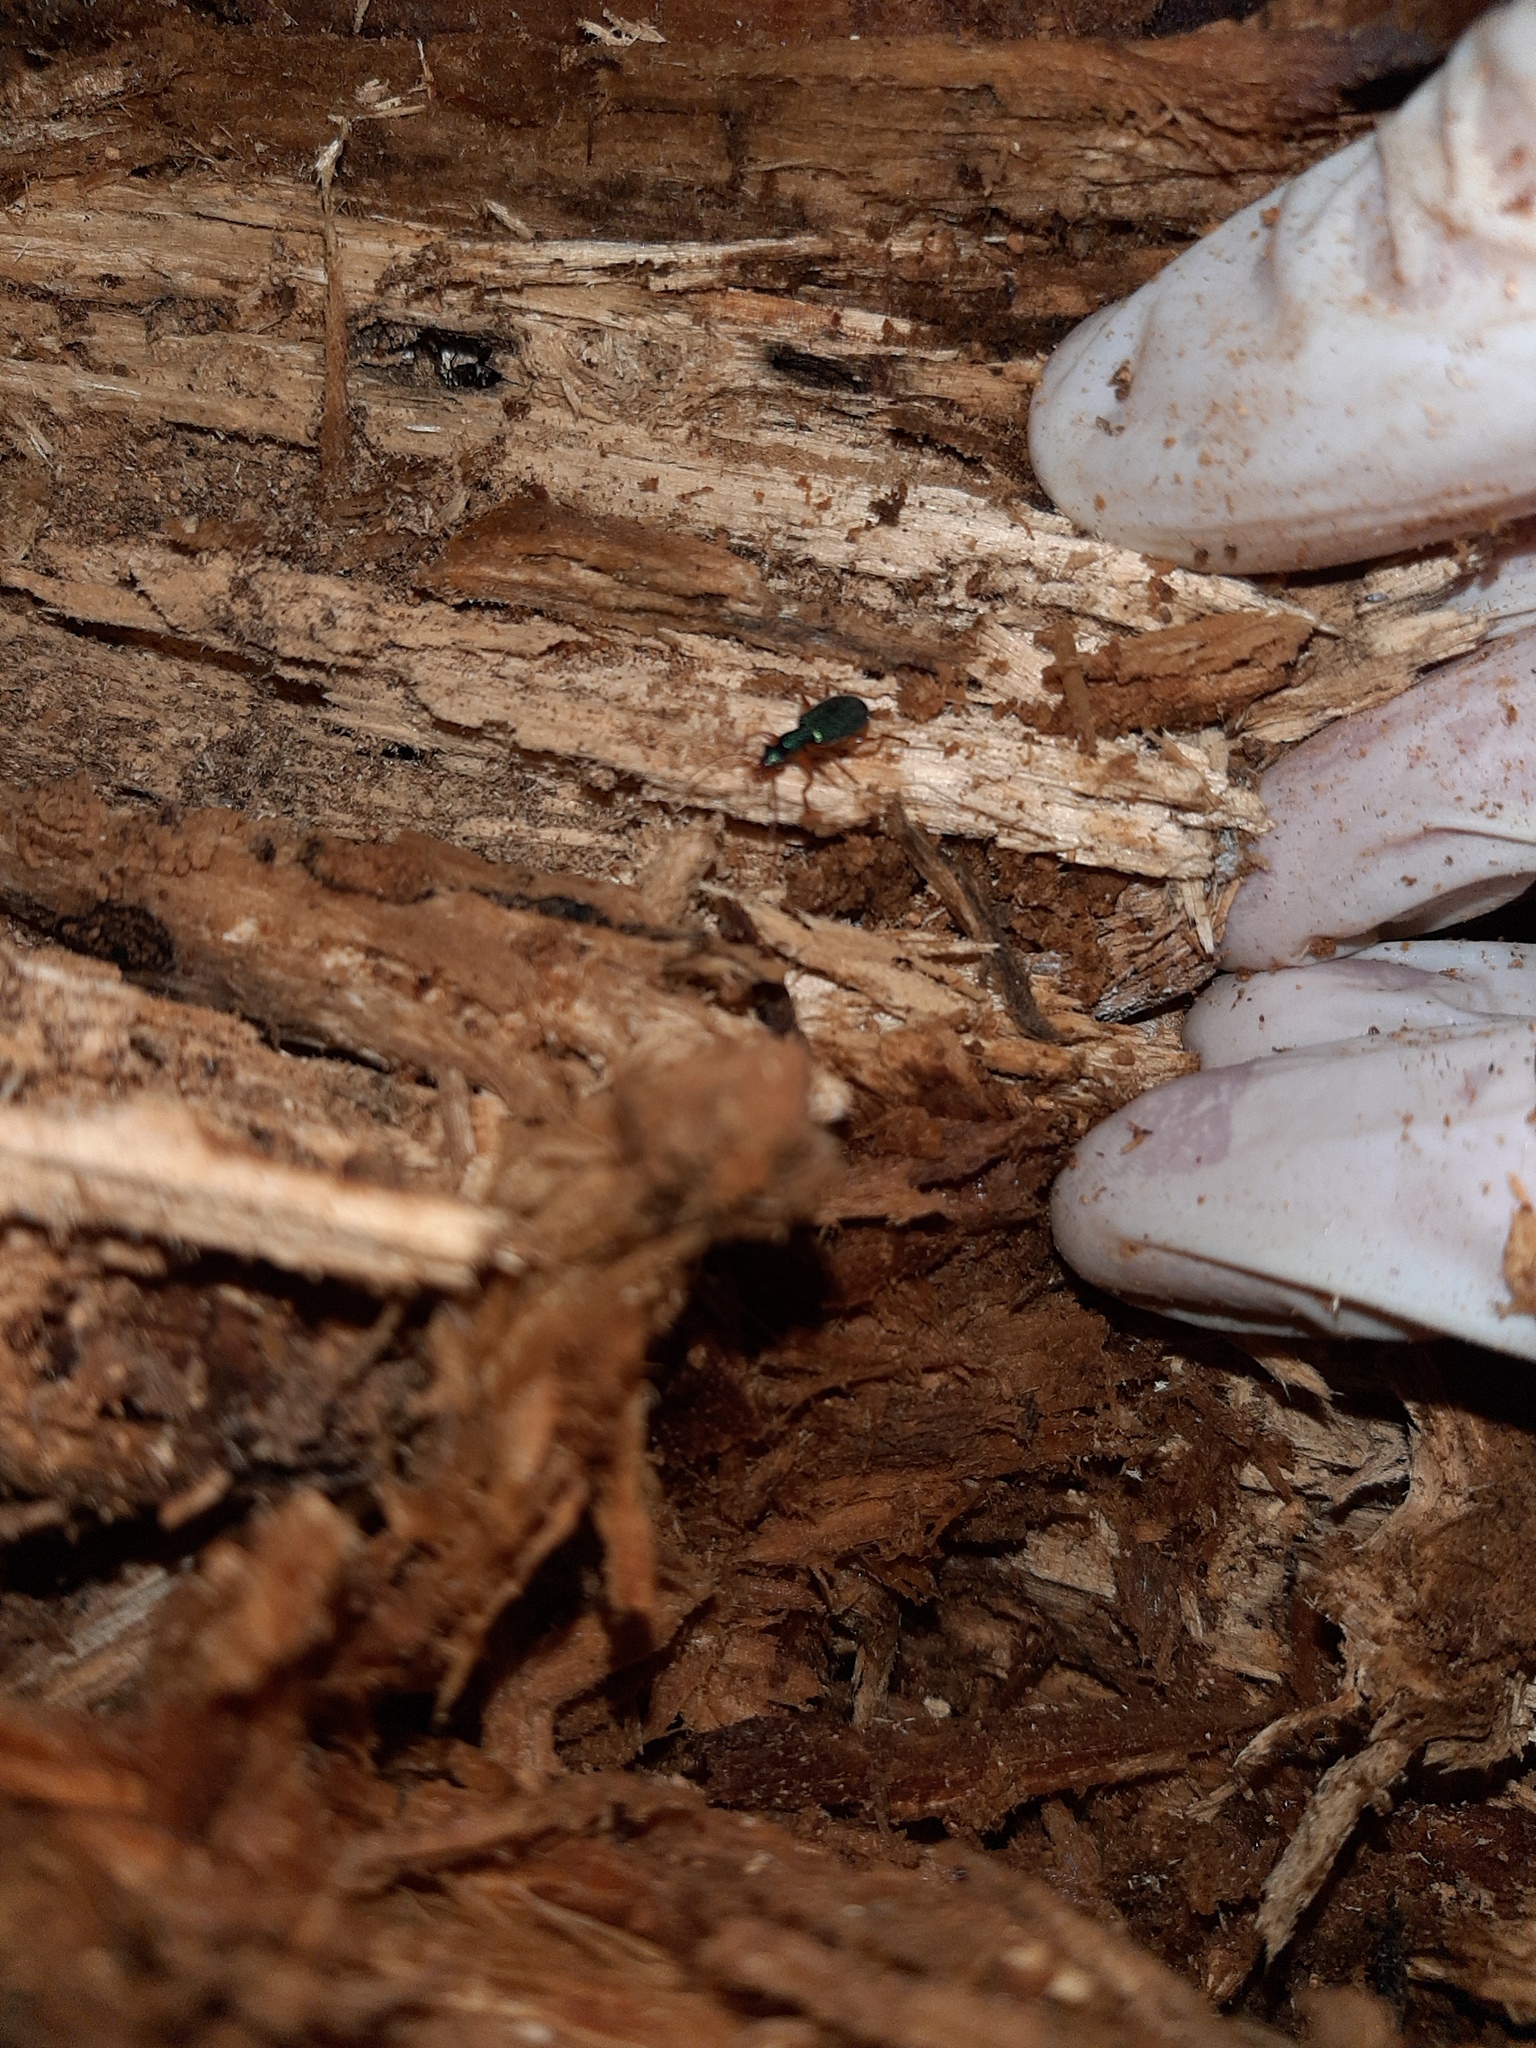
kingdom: Animalia
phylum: Arthropoda
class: Insecta
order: Coleoptera
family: Carabidae
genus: Drypta
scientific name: Drypta dentata
